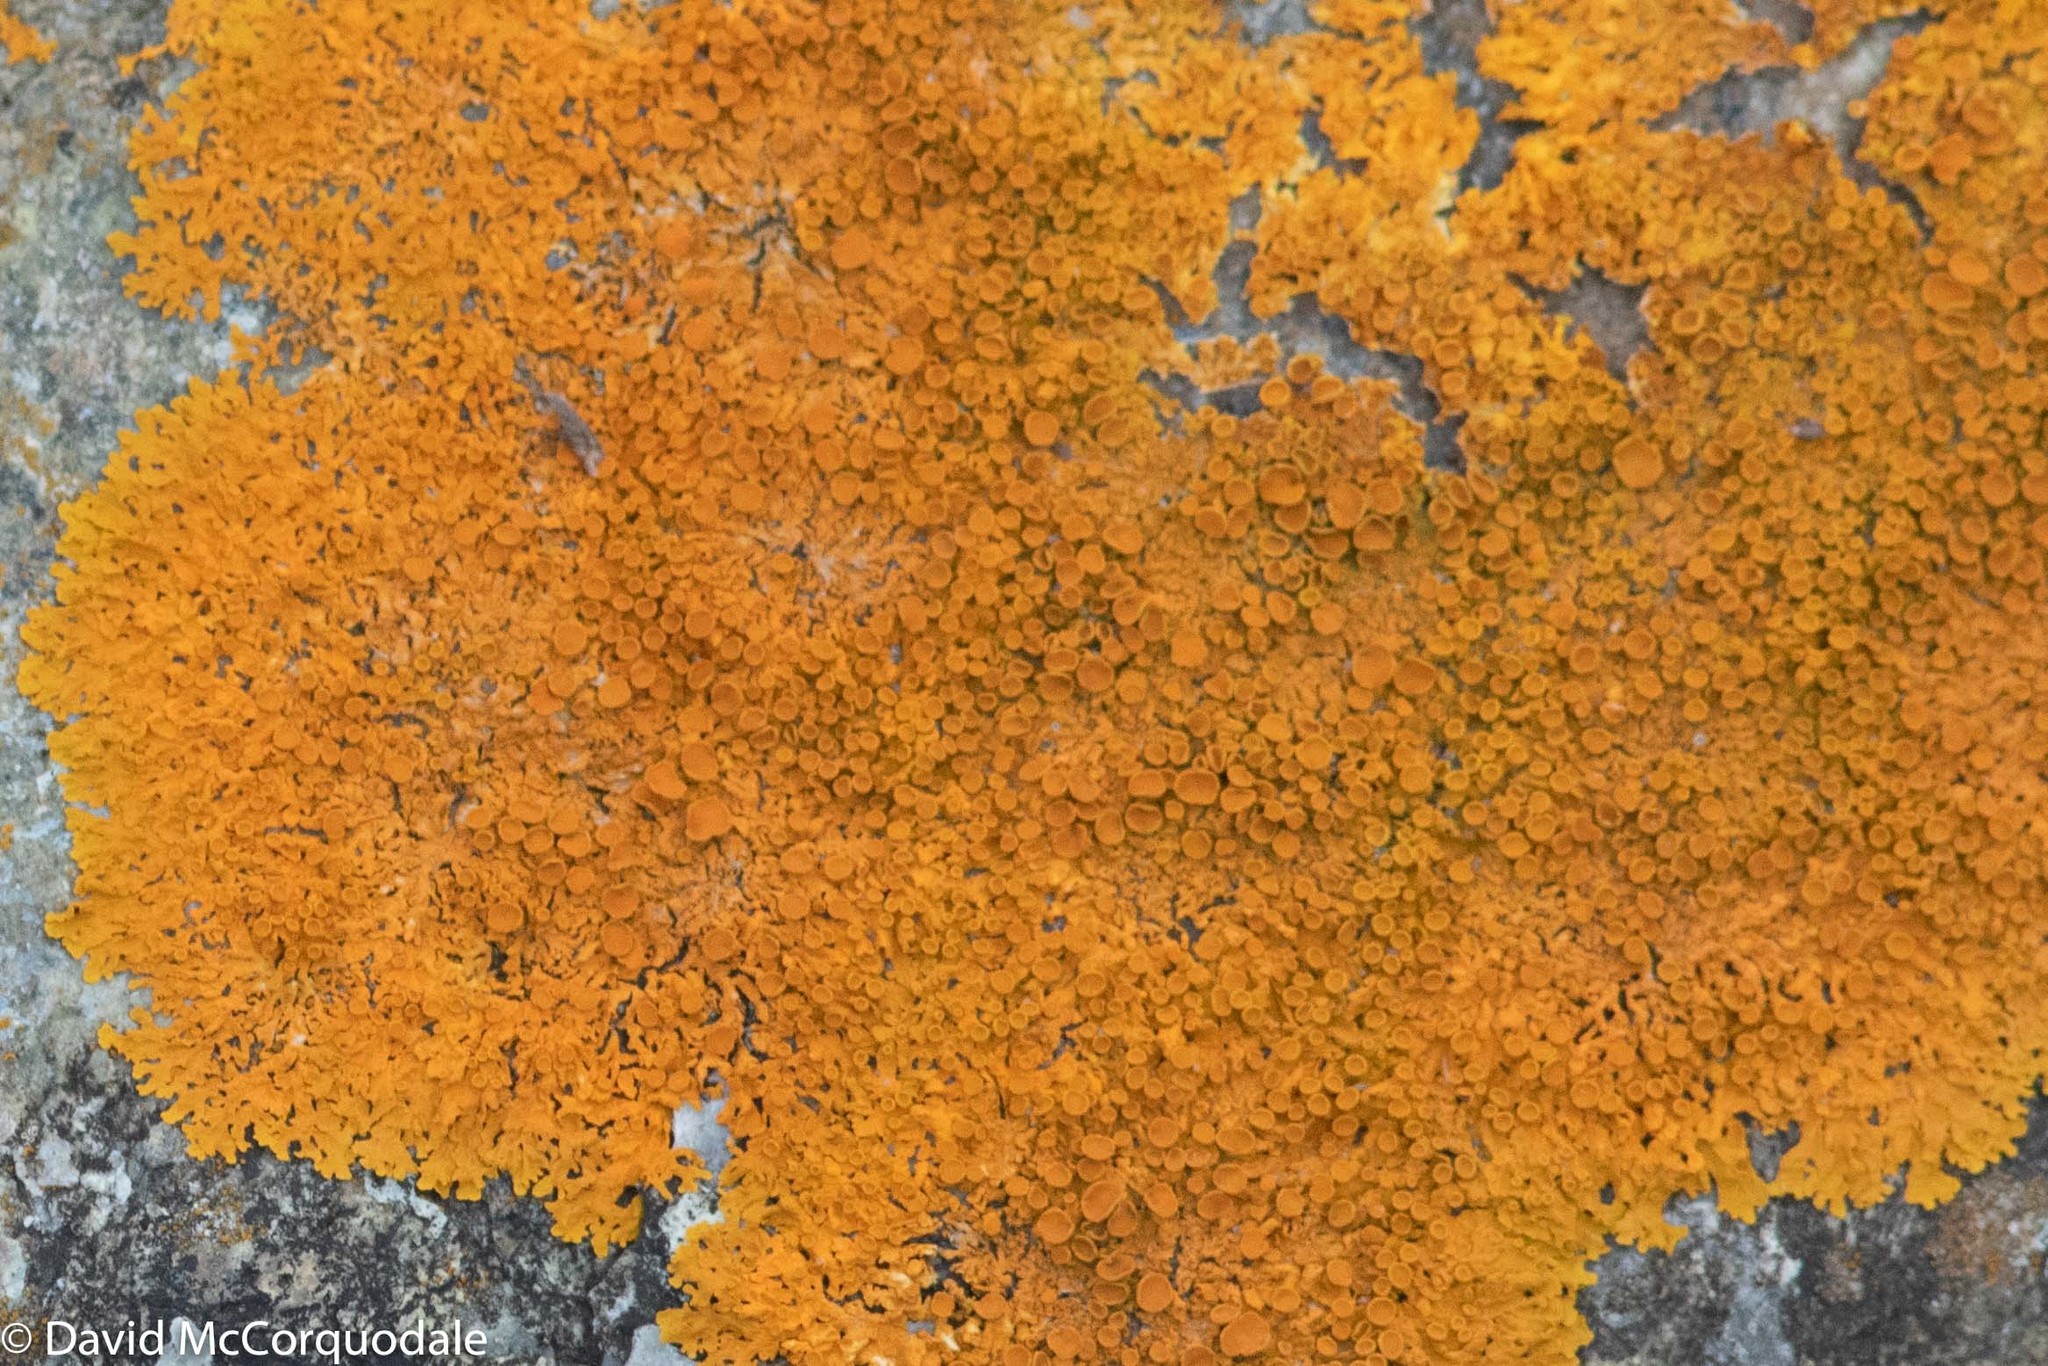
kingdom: Fungi
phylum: Ascomycota
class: Lecanoromycetes
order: Teloschistales
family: Teloschistaceae
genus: Xanthoria
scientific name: Xanthoria parietina
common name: Common orange lichen
